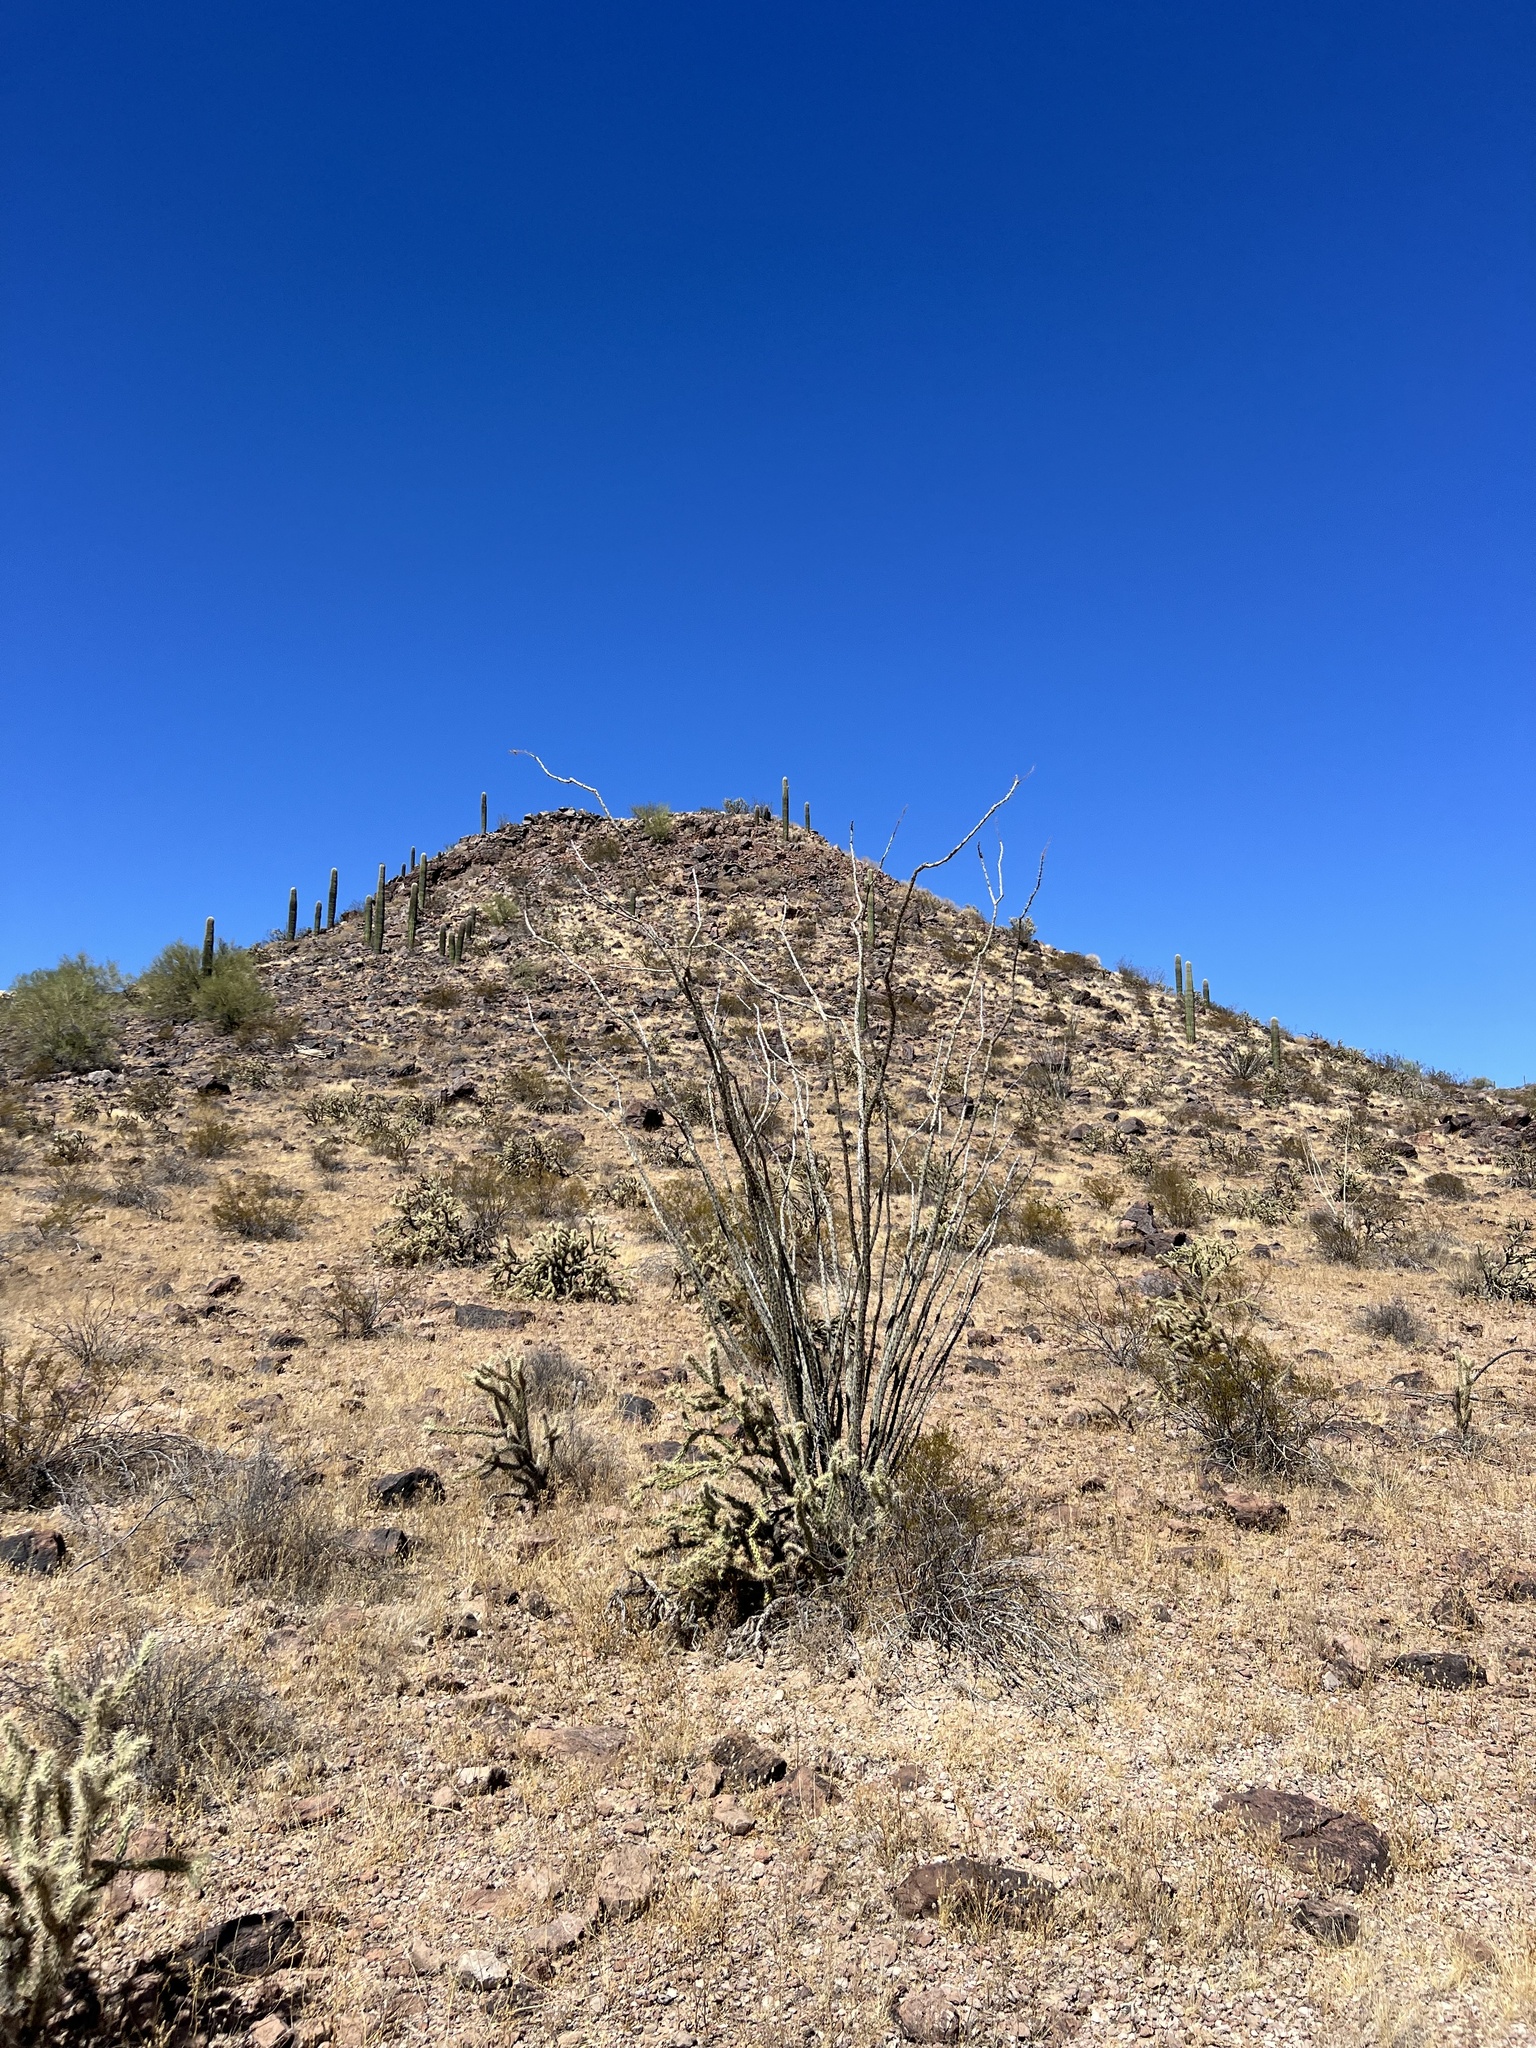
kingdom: Plantae
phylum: Tracheophyta
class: Magnoliopsida
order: Ericales
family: Fouquieriaceae
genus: Fouquieria
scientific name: Fouquieria splendens
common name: Vine-cactus
